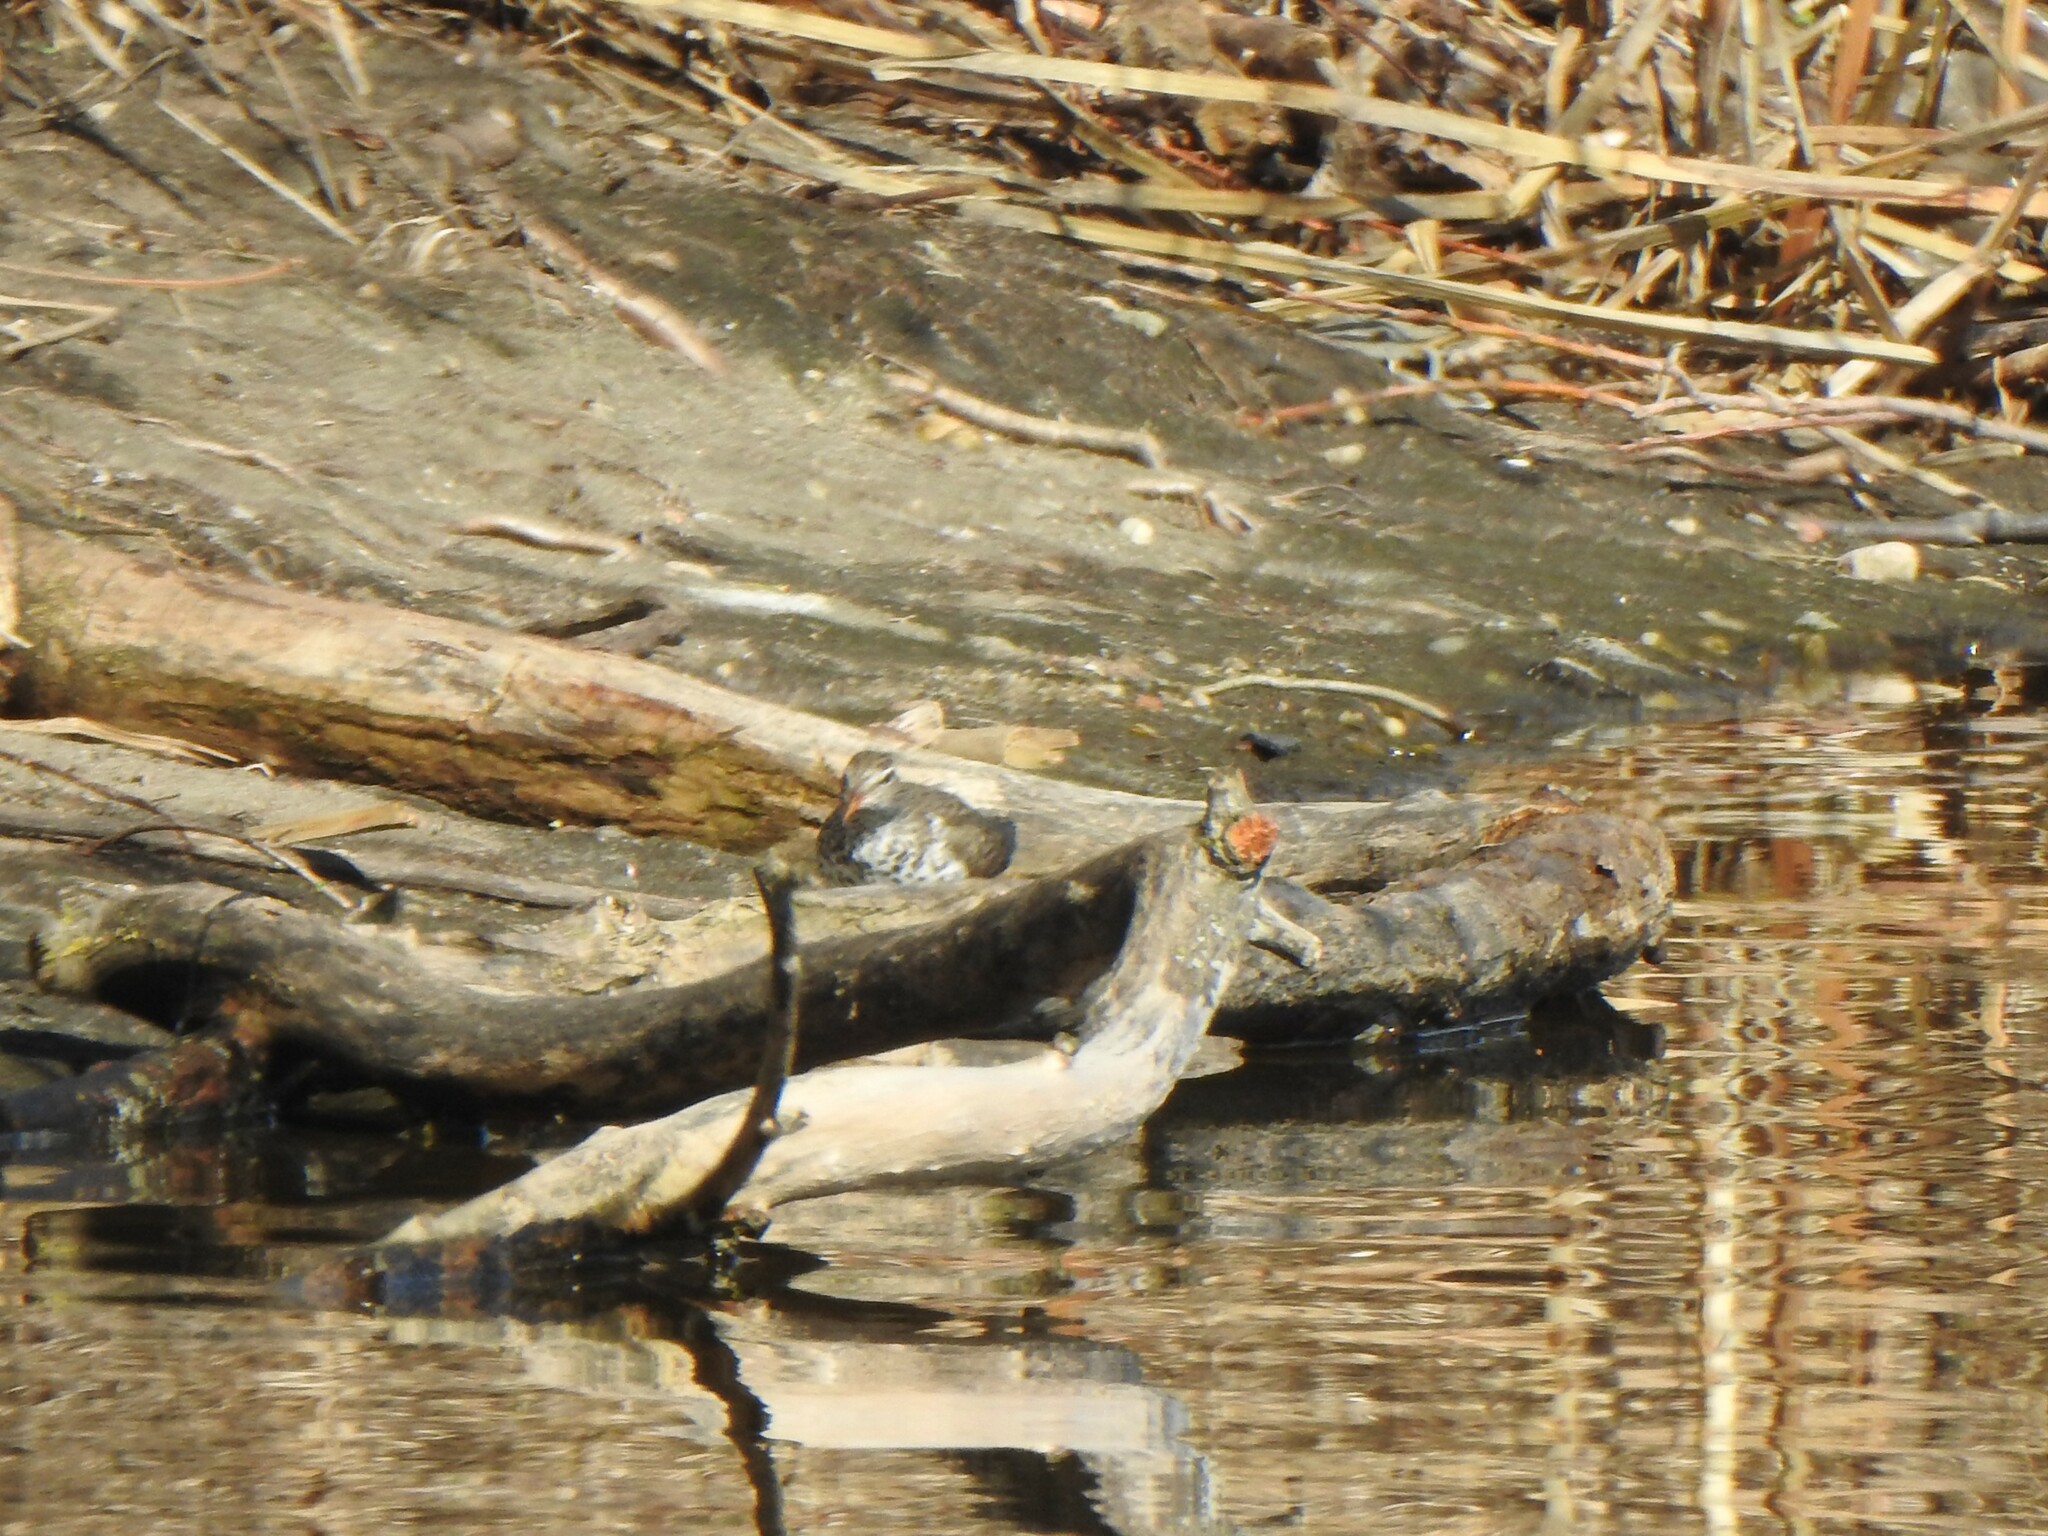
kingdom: Animalia
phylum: Chordata
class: Aves
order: Charadriiformes
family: Scolopacidae
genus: Actitis
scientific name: Actitis macularius
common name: Spotted sandpiper
